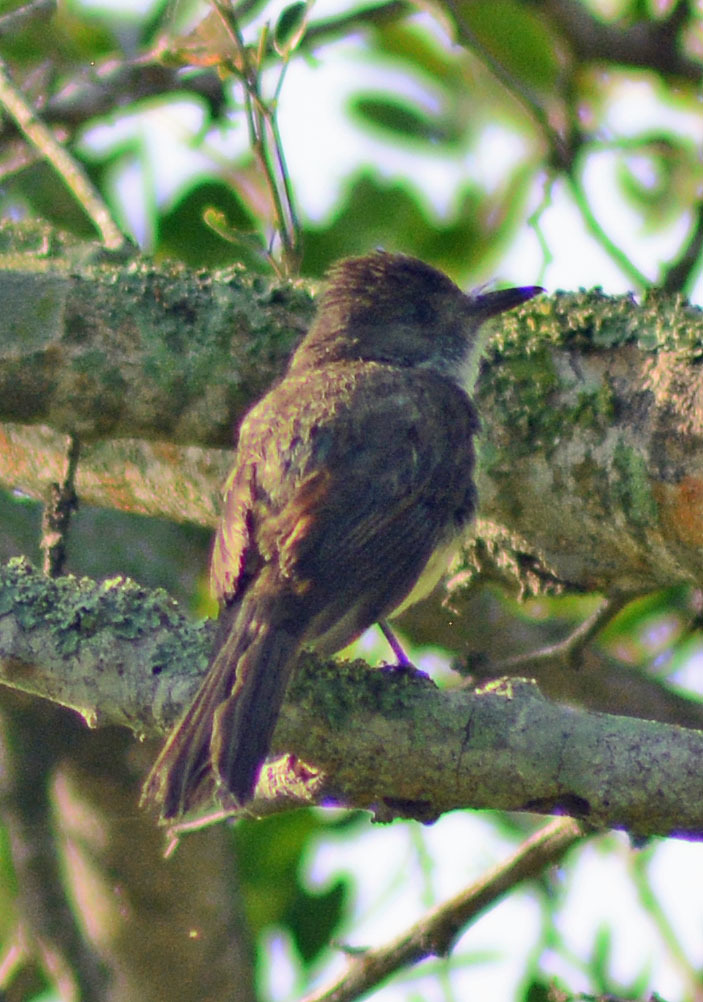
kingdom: Animalia
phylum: Chordata
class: Aves
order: Passeriformes
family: Tyrannidae
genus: Myiarchus
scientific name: Myiarchus tuberculifer
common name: Dusky-capped flycatcher
